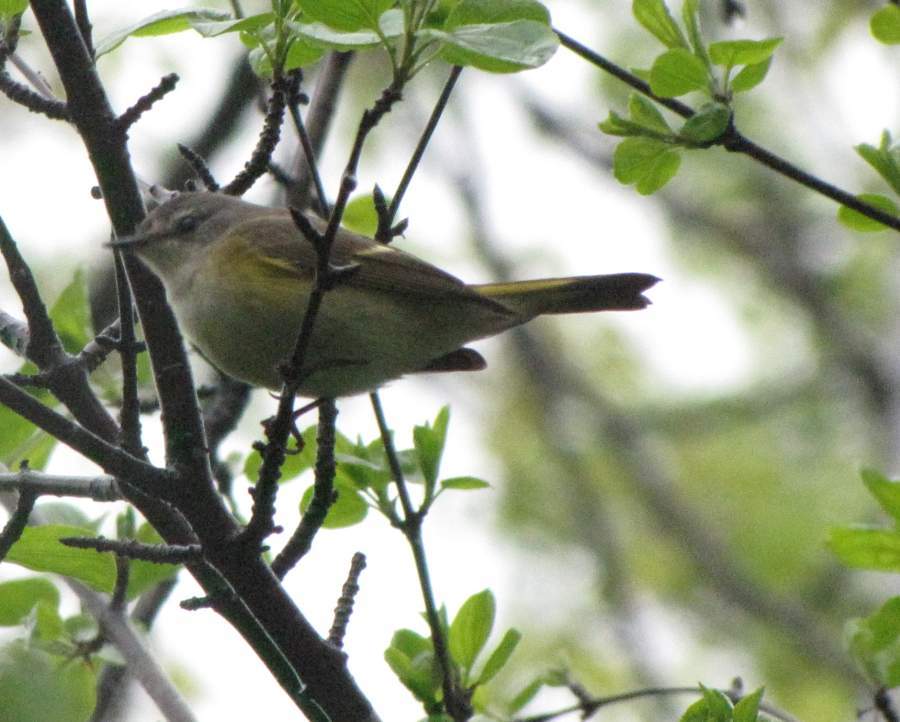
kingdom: Animalia
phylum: Chordata
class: Aves
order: Passeriformes
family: Parulidae
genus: Setophaga
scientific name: Setophaga ruticilla
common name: American redstart
